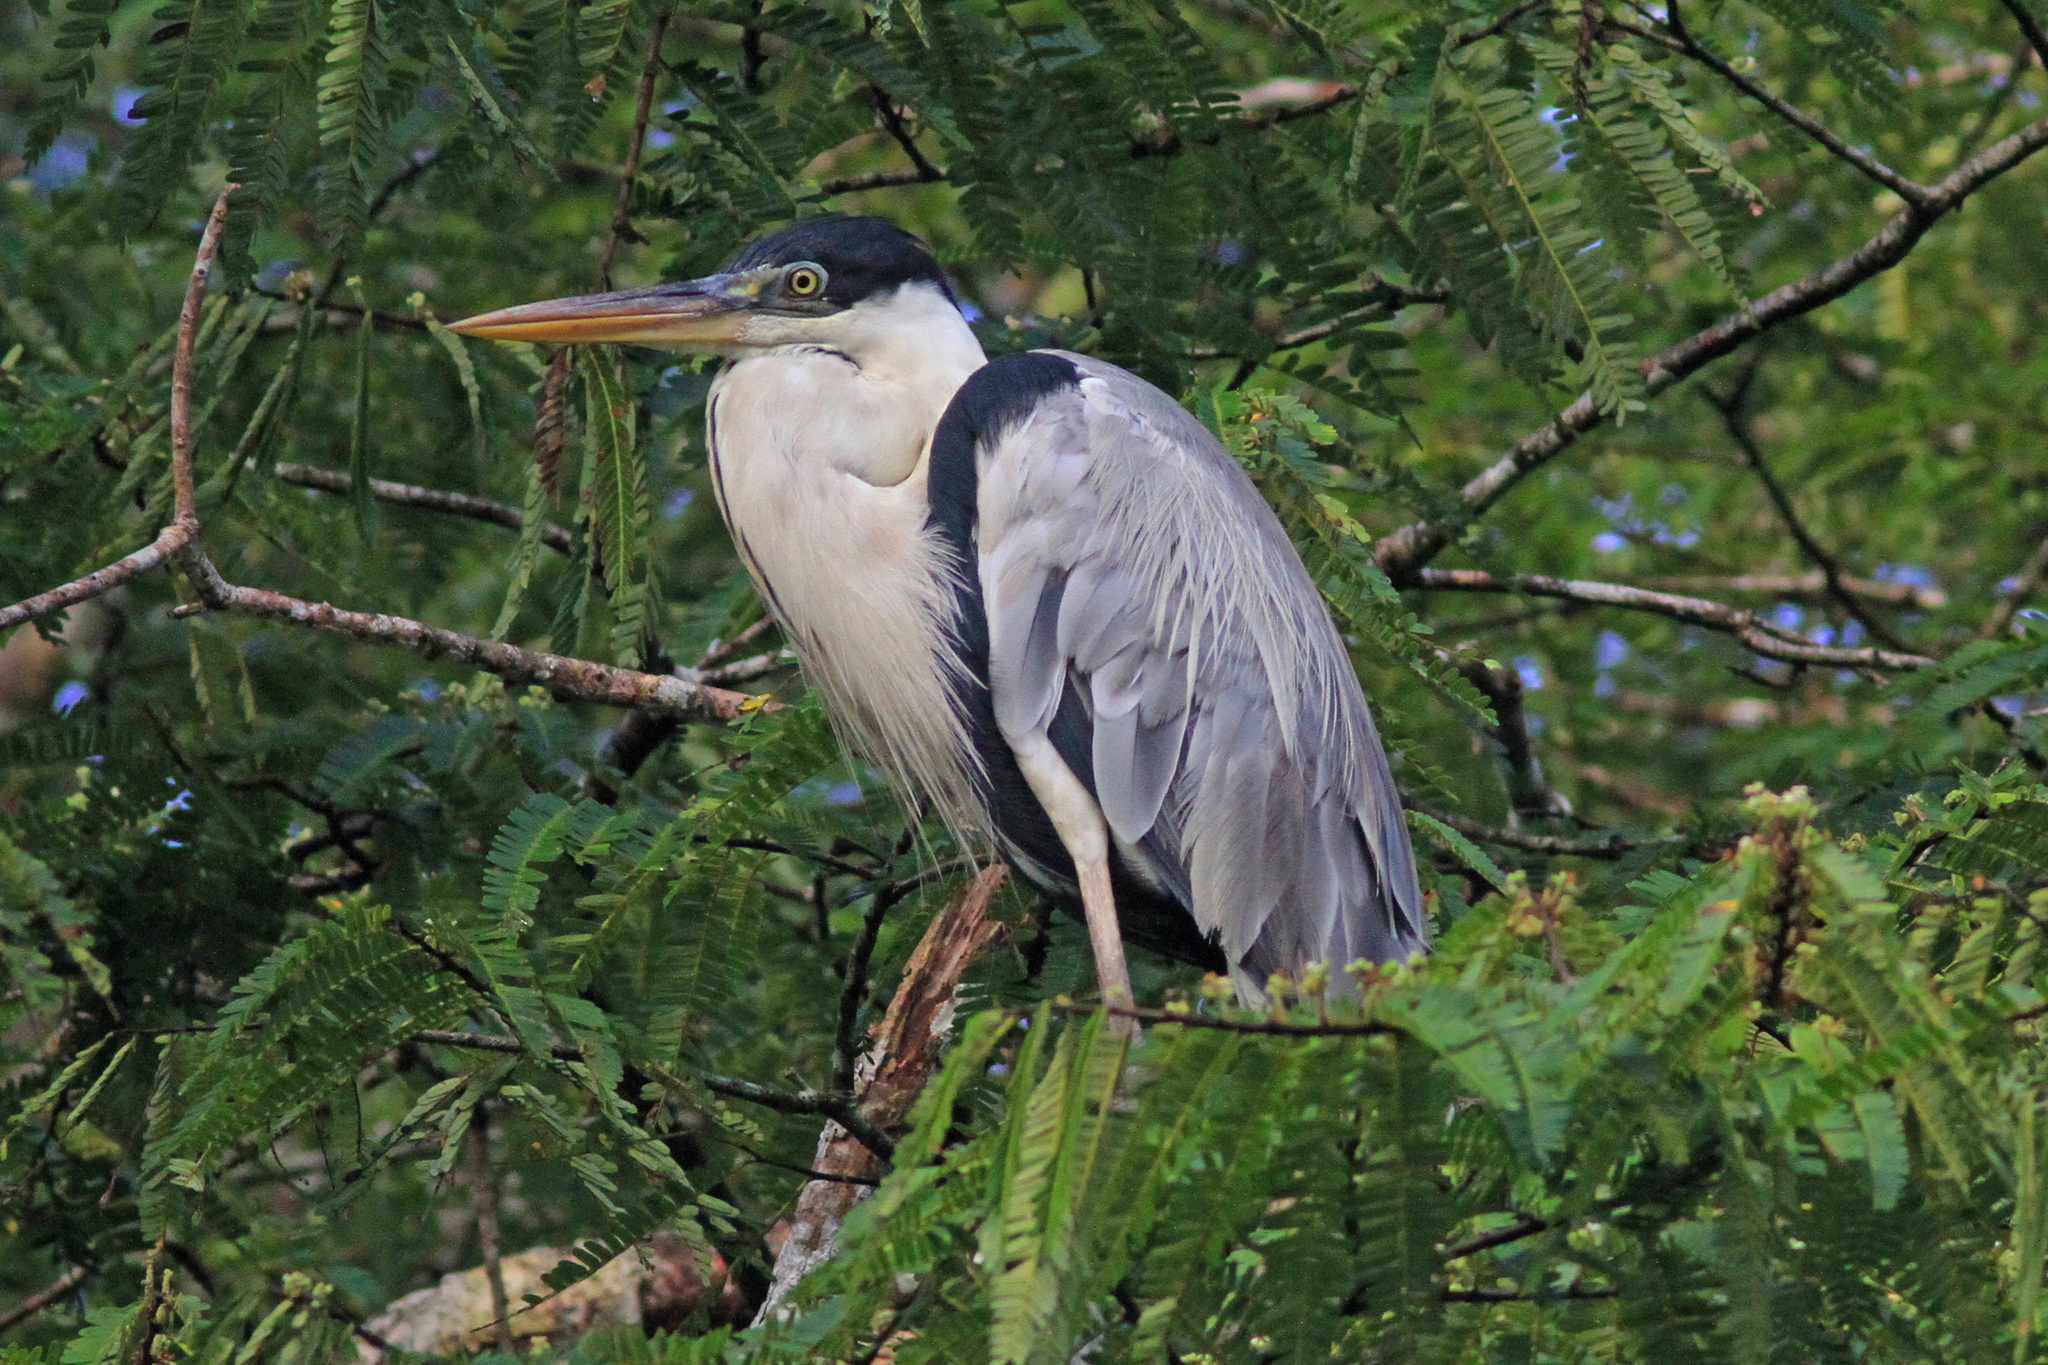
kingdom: Animalia
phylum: Chordata
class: Aves
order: Pelecaniformes
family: Ardeidae
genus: Ardea
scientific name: Ardea cocoi
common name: Cocoi heron
